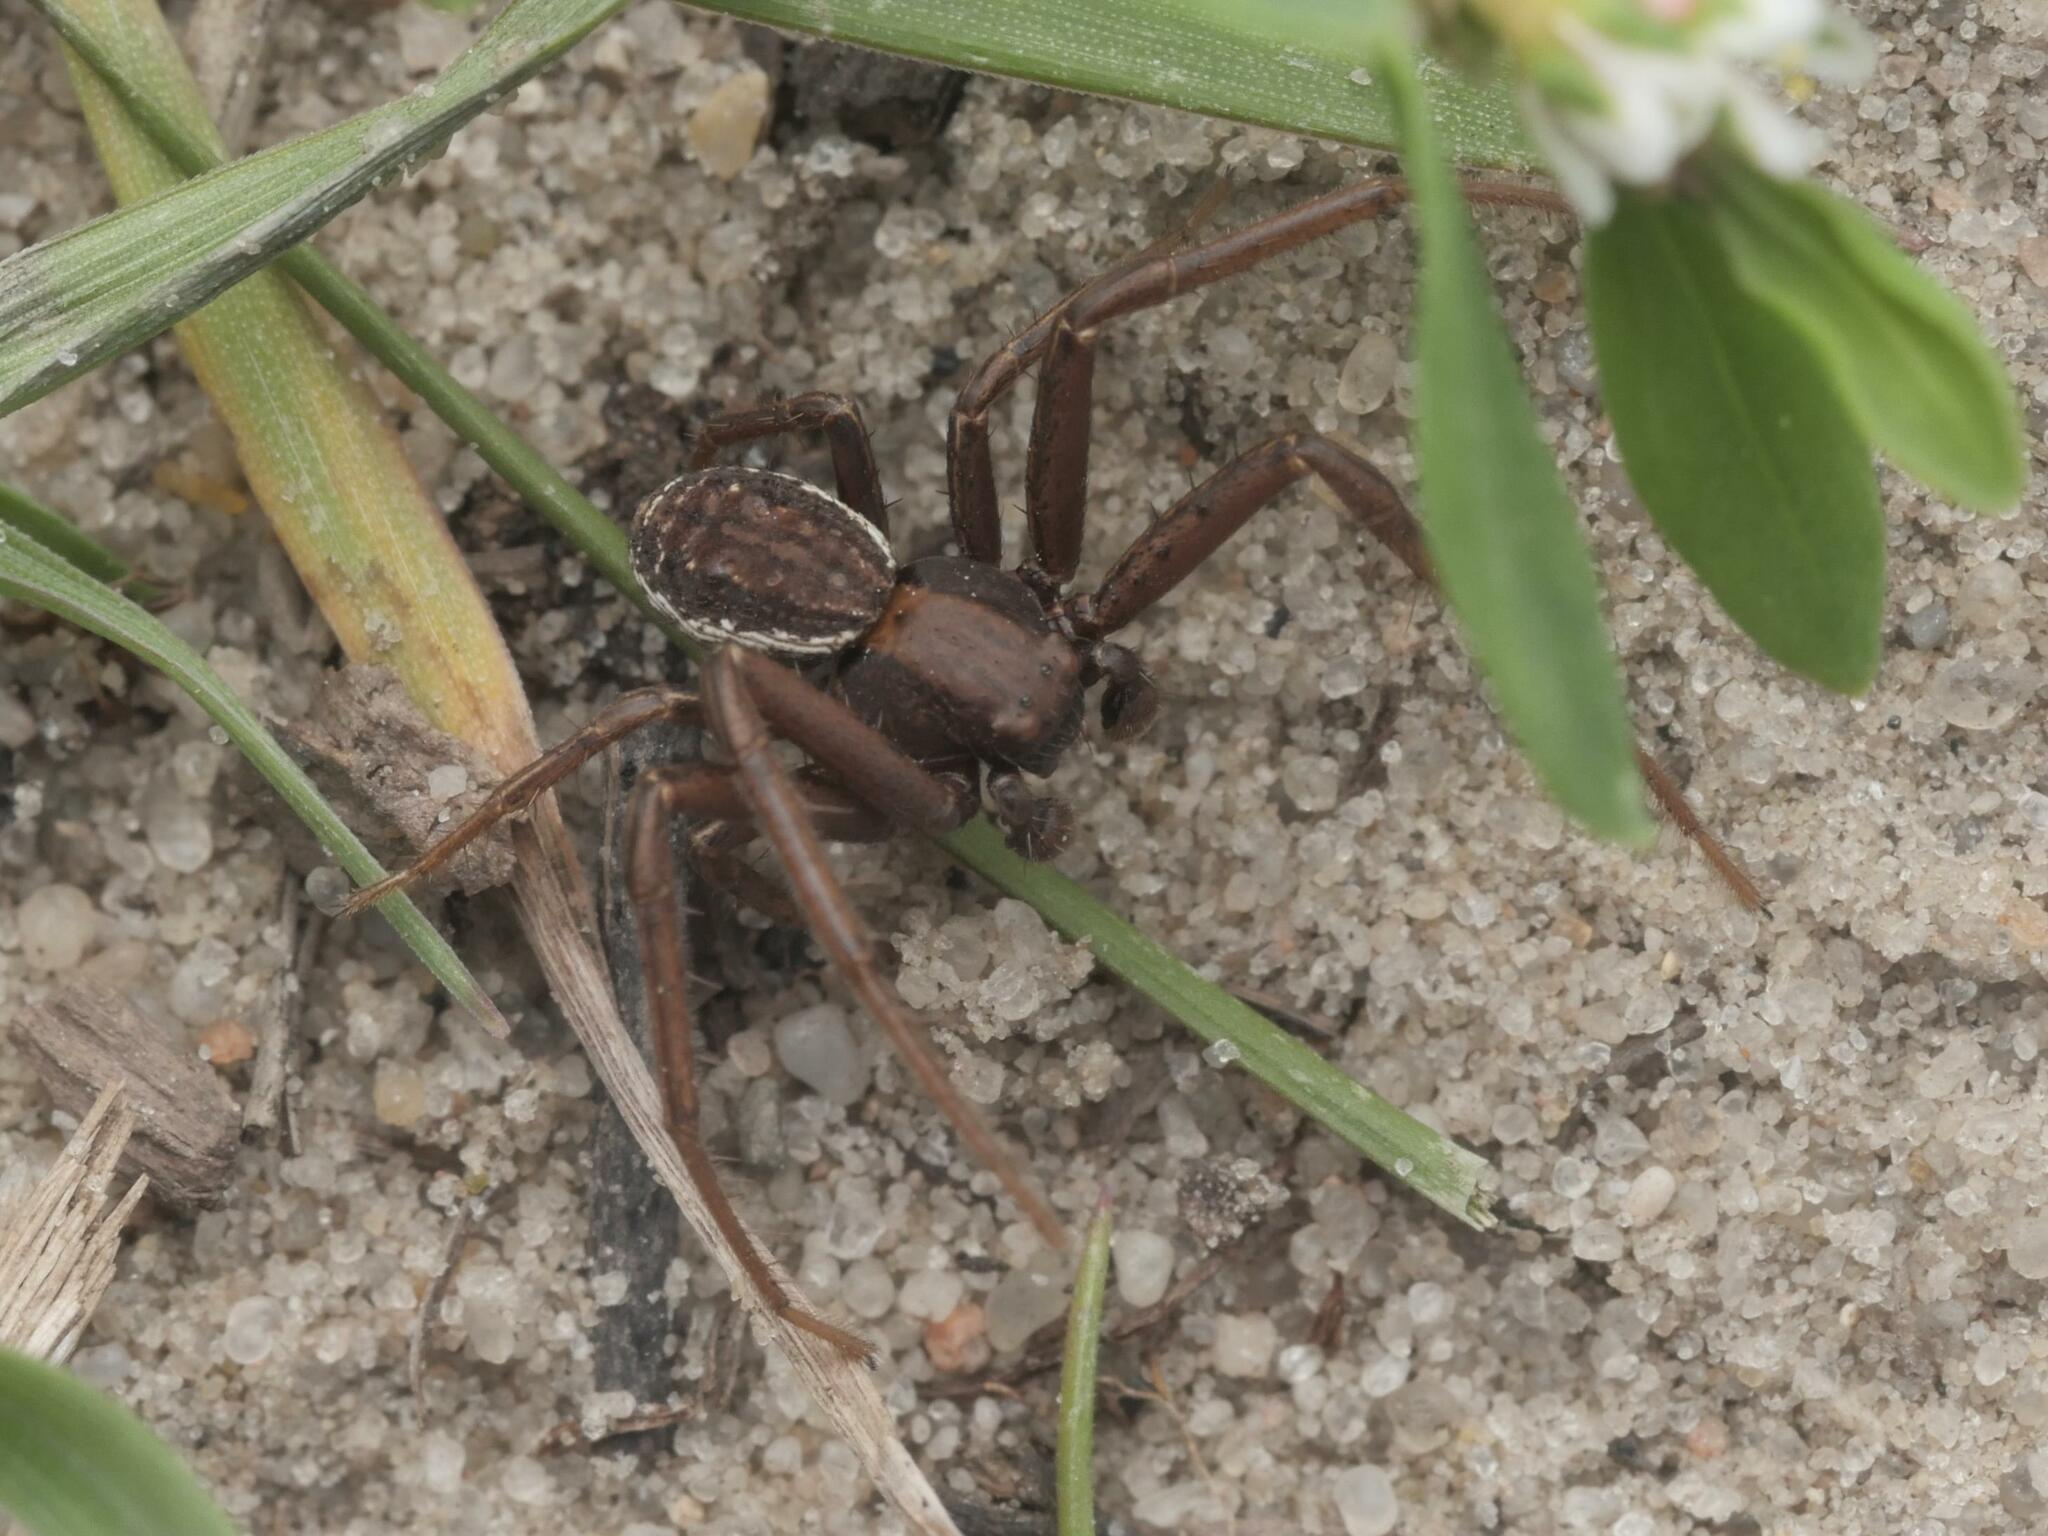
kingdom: Animalia
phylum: Arthropoda
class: Arachnida
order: Araneae
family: Thomisidae
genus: Spiracme
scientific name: Spiracme striatipes
